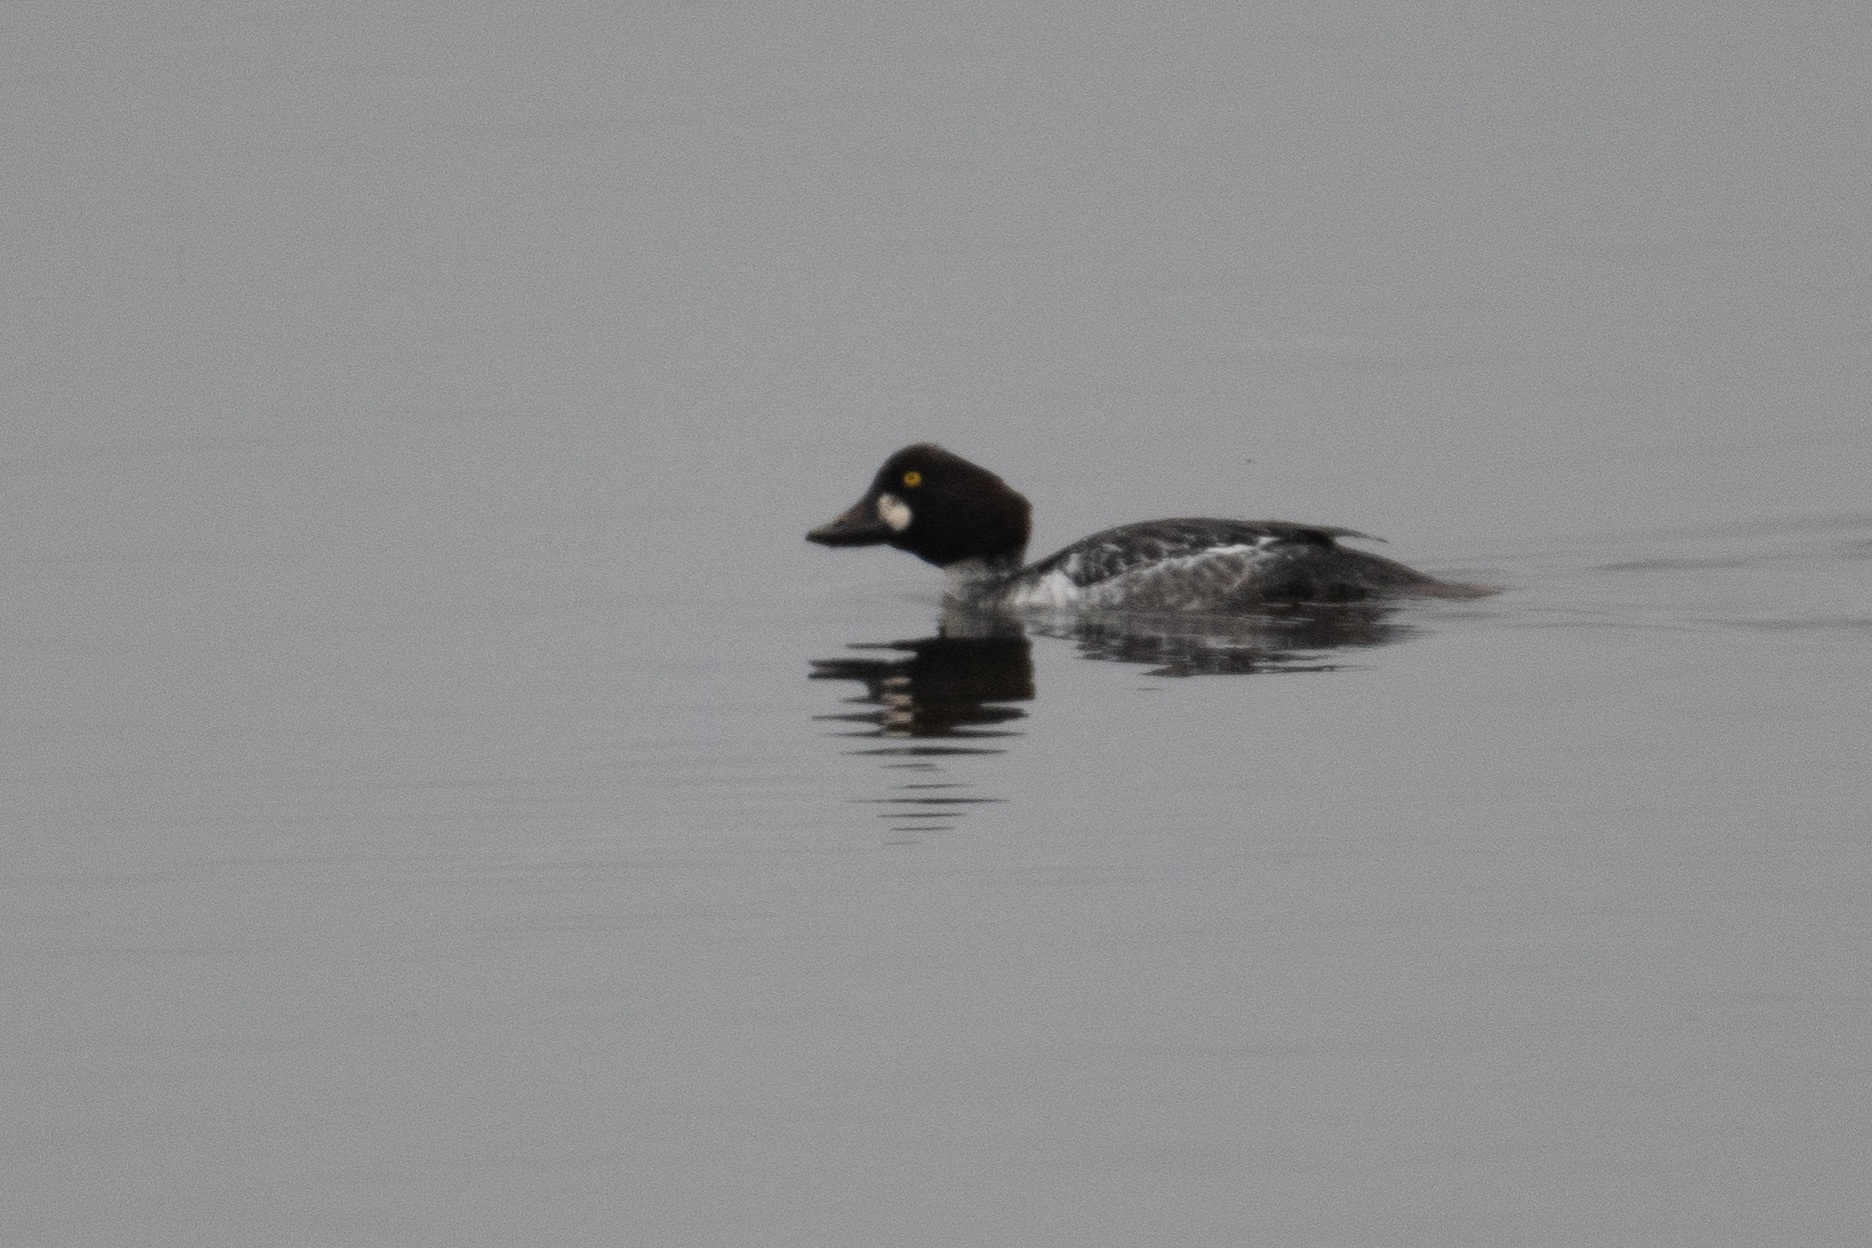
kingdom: Animalia
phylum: Chordata
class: Aves
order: Anseriformes
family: Anatidae
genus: Bucephala
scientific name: Bucephala clangula
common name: Common goldeneye
